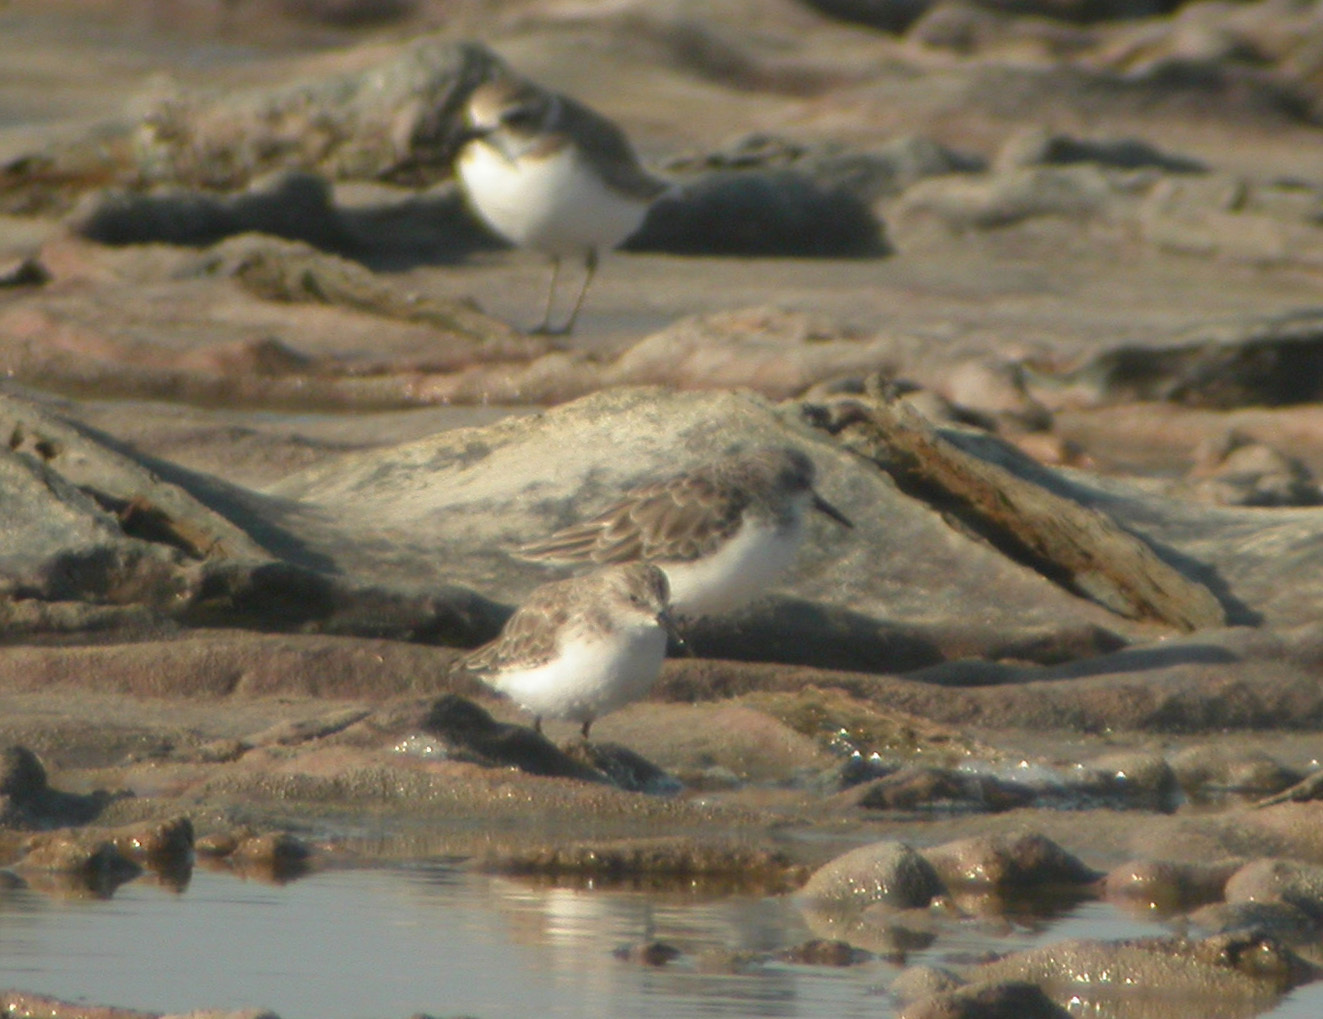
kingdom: Animalia
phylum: Chordata
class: Aves
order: Charadriiformes
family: Scolopacidae
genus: Calidris
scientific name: Calidris minuta
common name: Little stint
